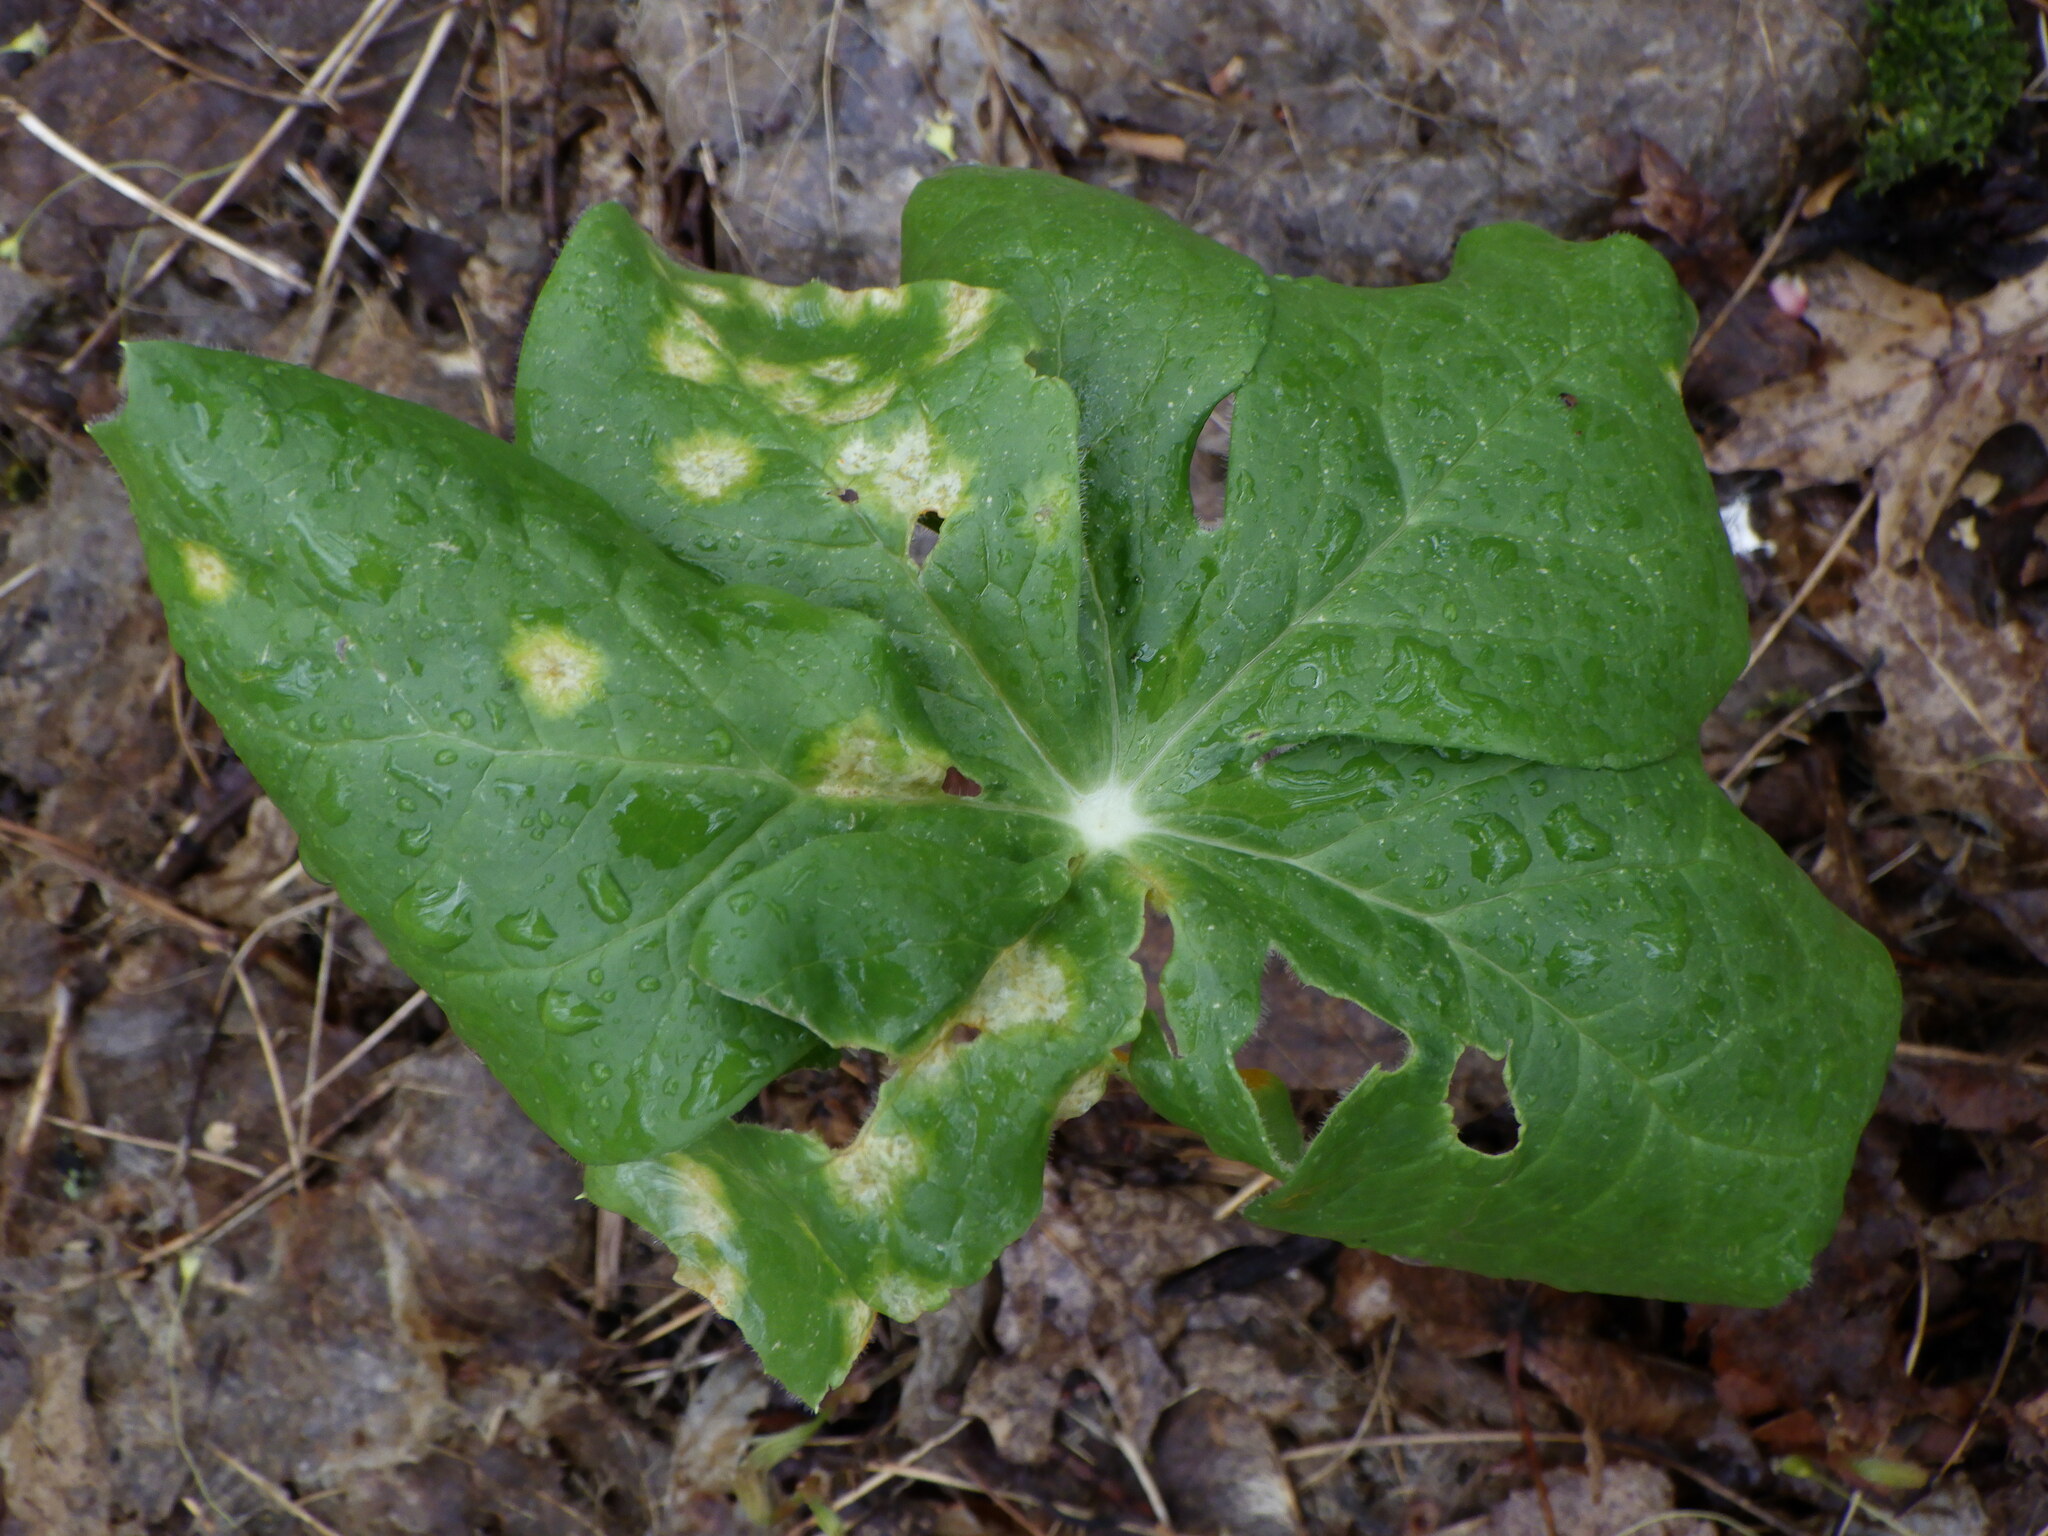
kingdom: Fungi
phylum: Basidiomycota
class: Pucciniomycetes
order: Pucciniales
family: Pucciniaceae
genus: Puccinia
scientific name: Puccinia podophylli
